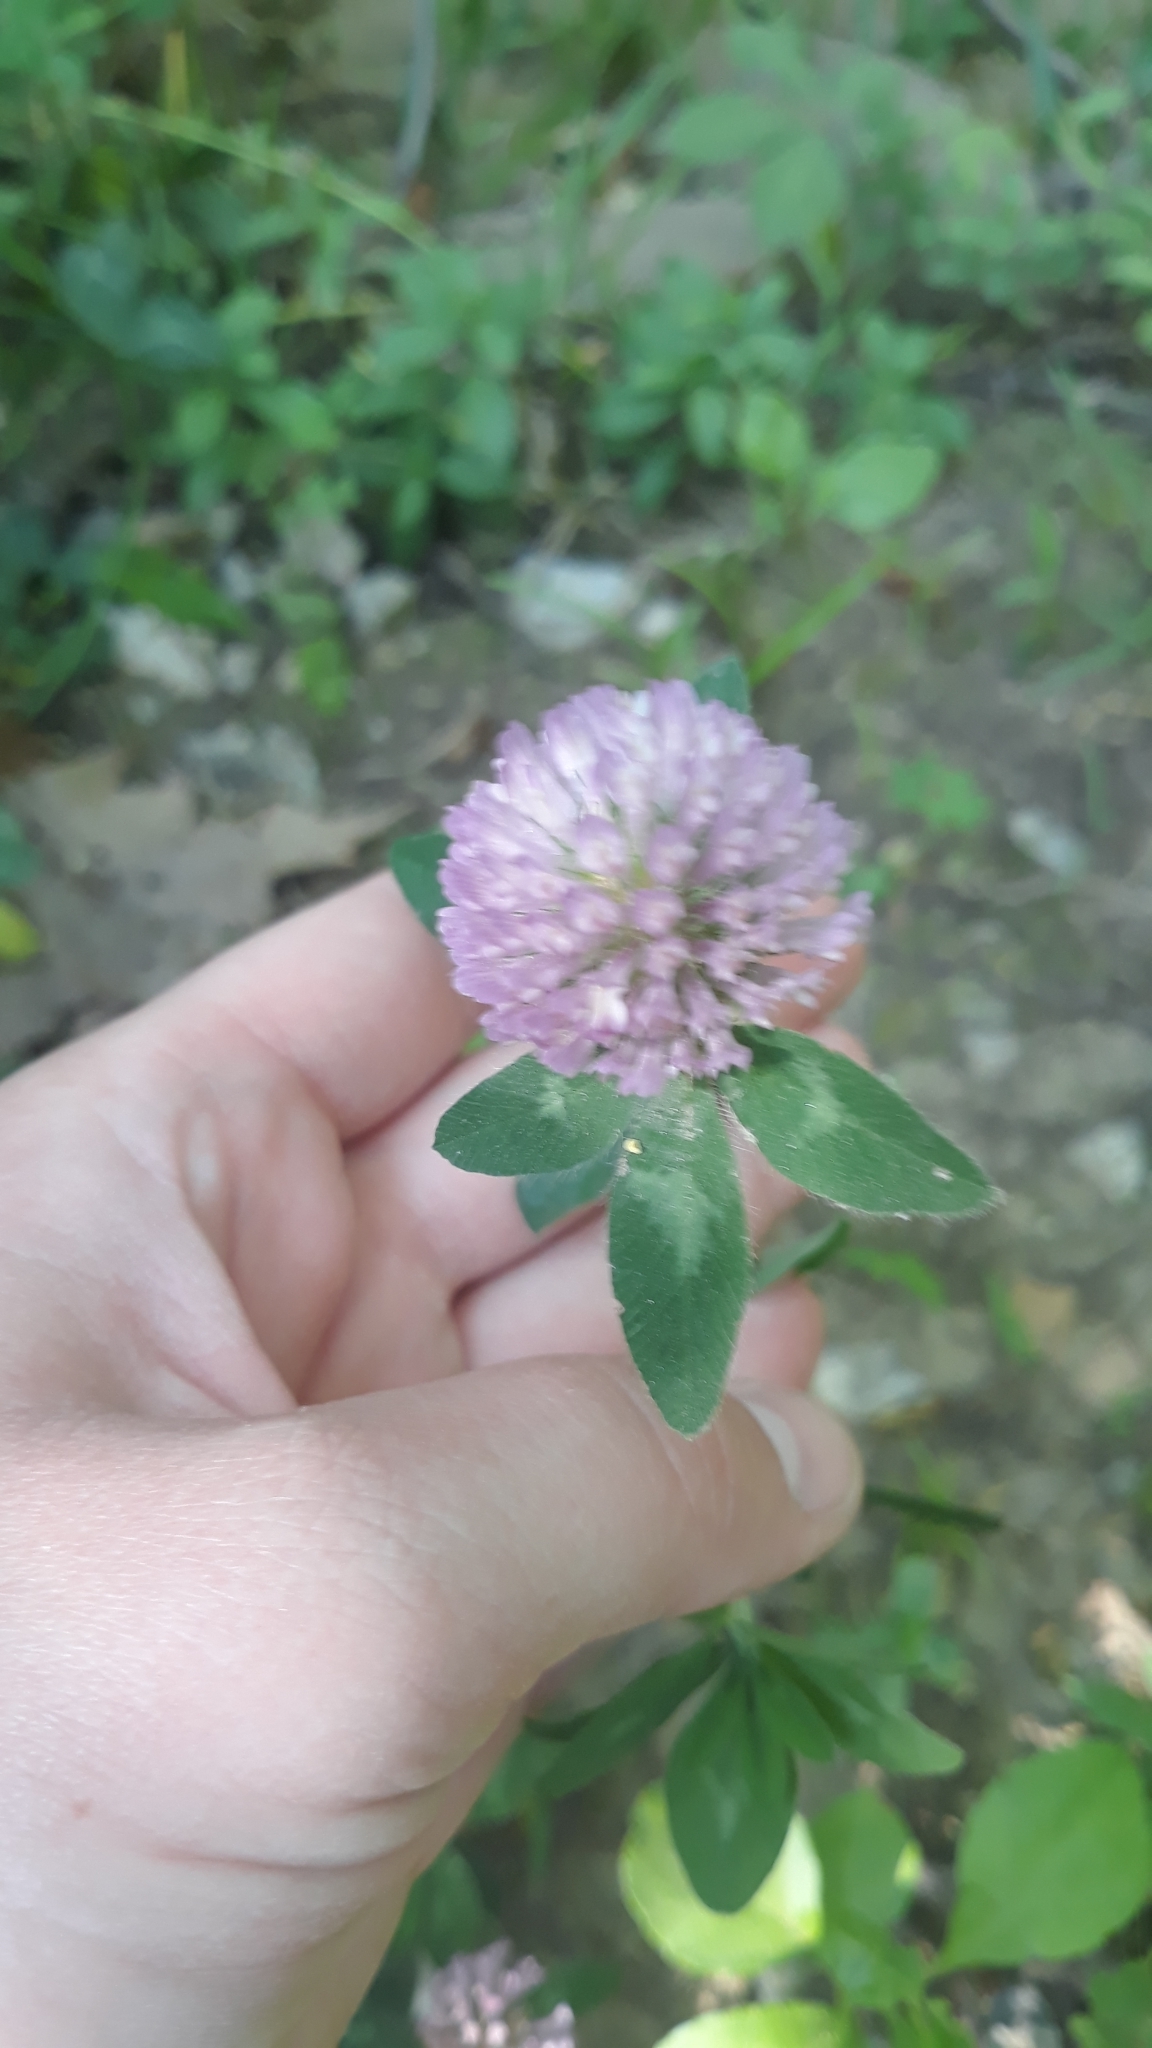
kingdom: Plantae
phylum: Tracheophyta
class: Magnoliopsida
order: Fabales
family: Fabaceae
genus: Trifolium
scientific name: Trifolium pratense
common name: Red clover
